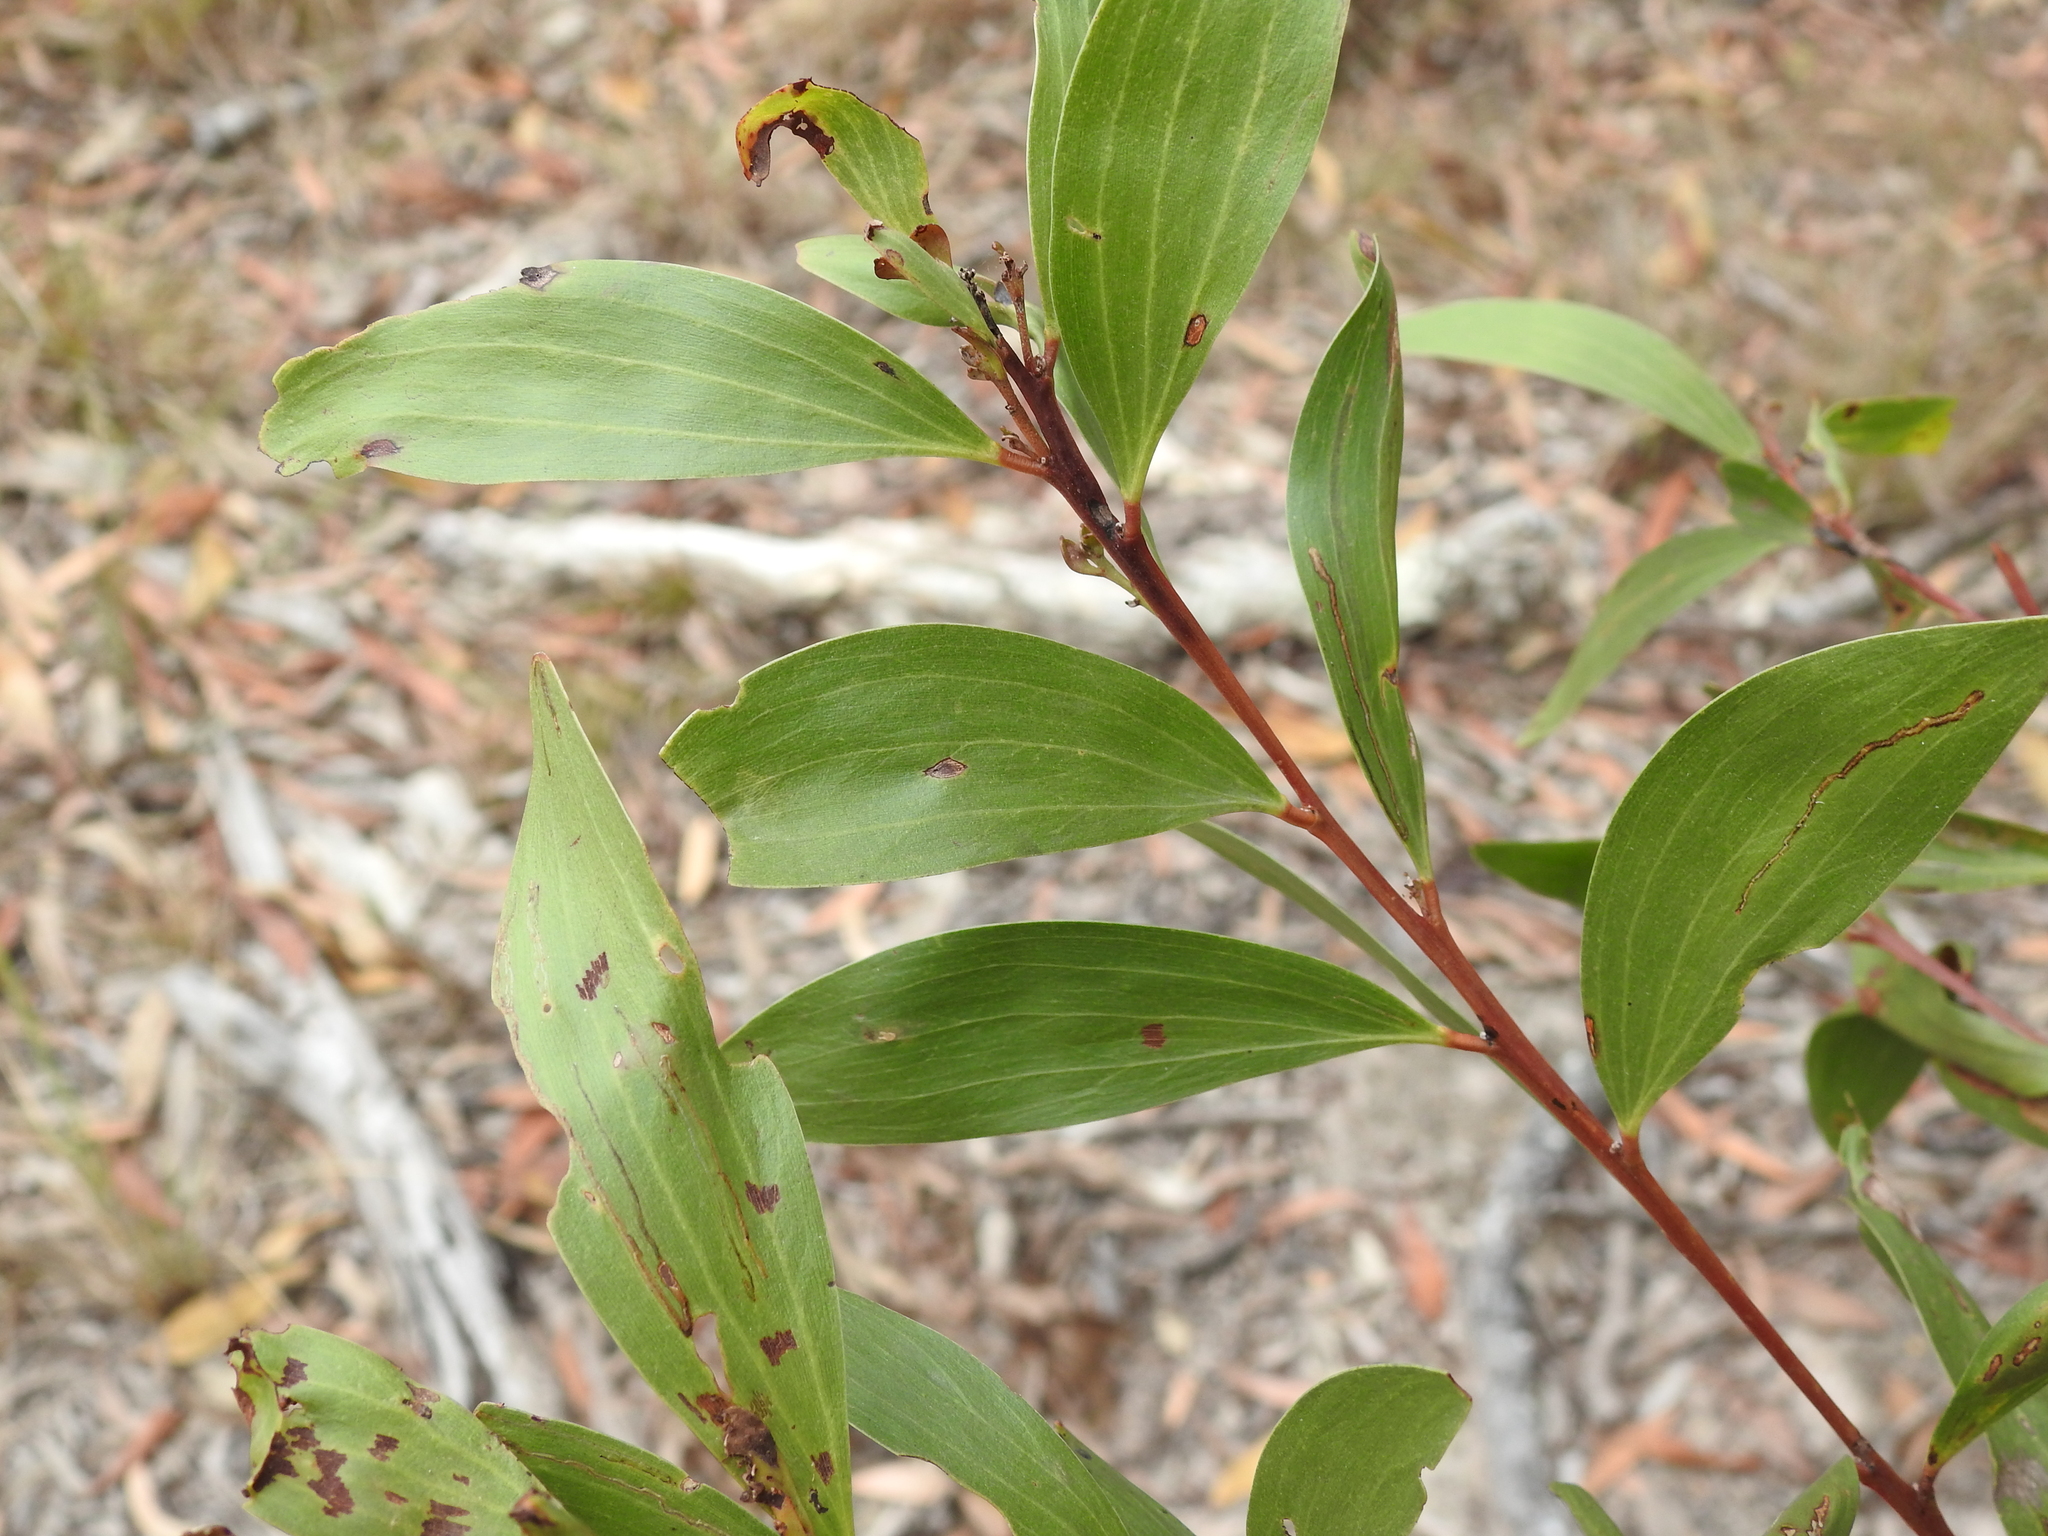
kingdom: Plantae
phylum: Tracheophyta
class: Magnoliopsida
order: Fabales
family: Fabaceae
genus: Acacia
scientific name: Acacia leiocalyx
